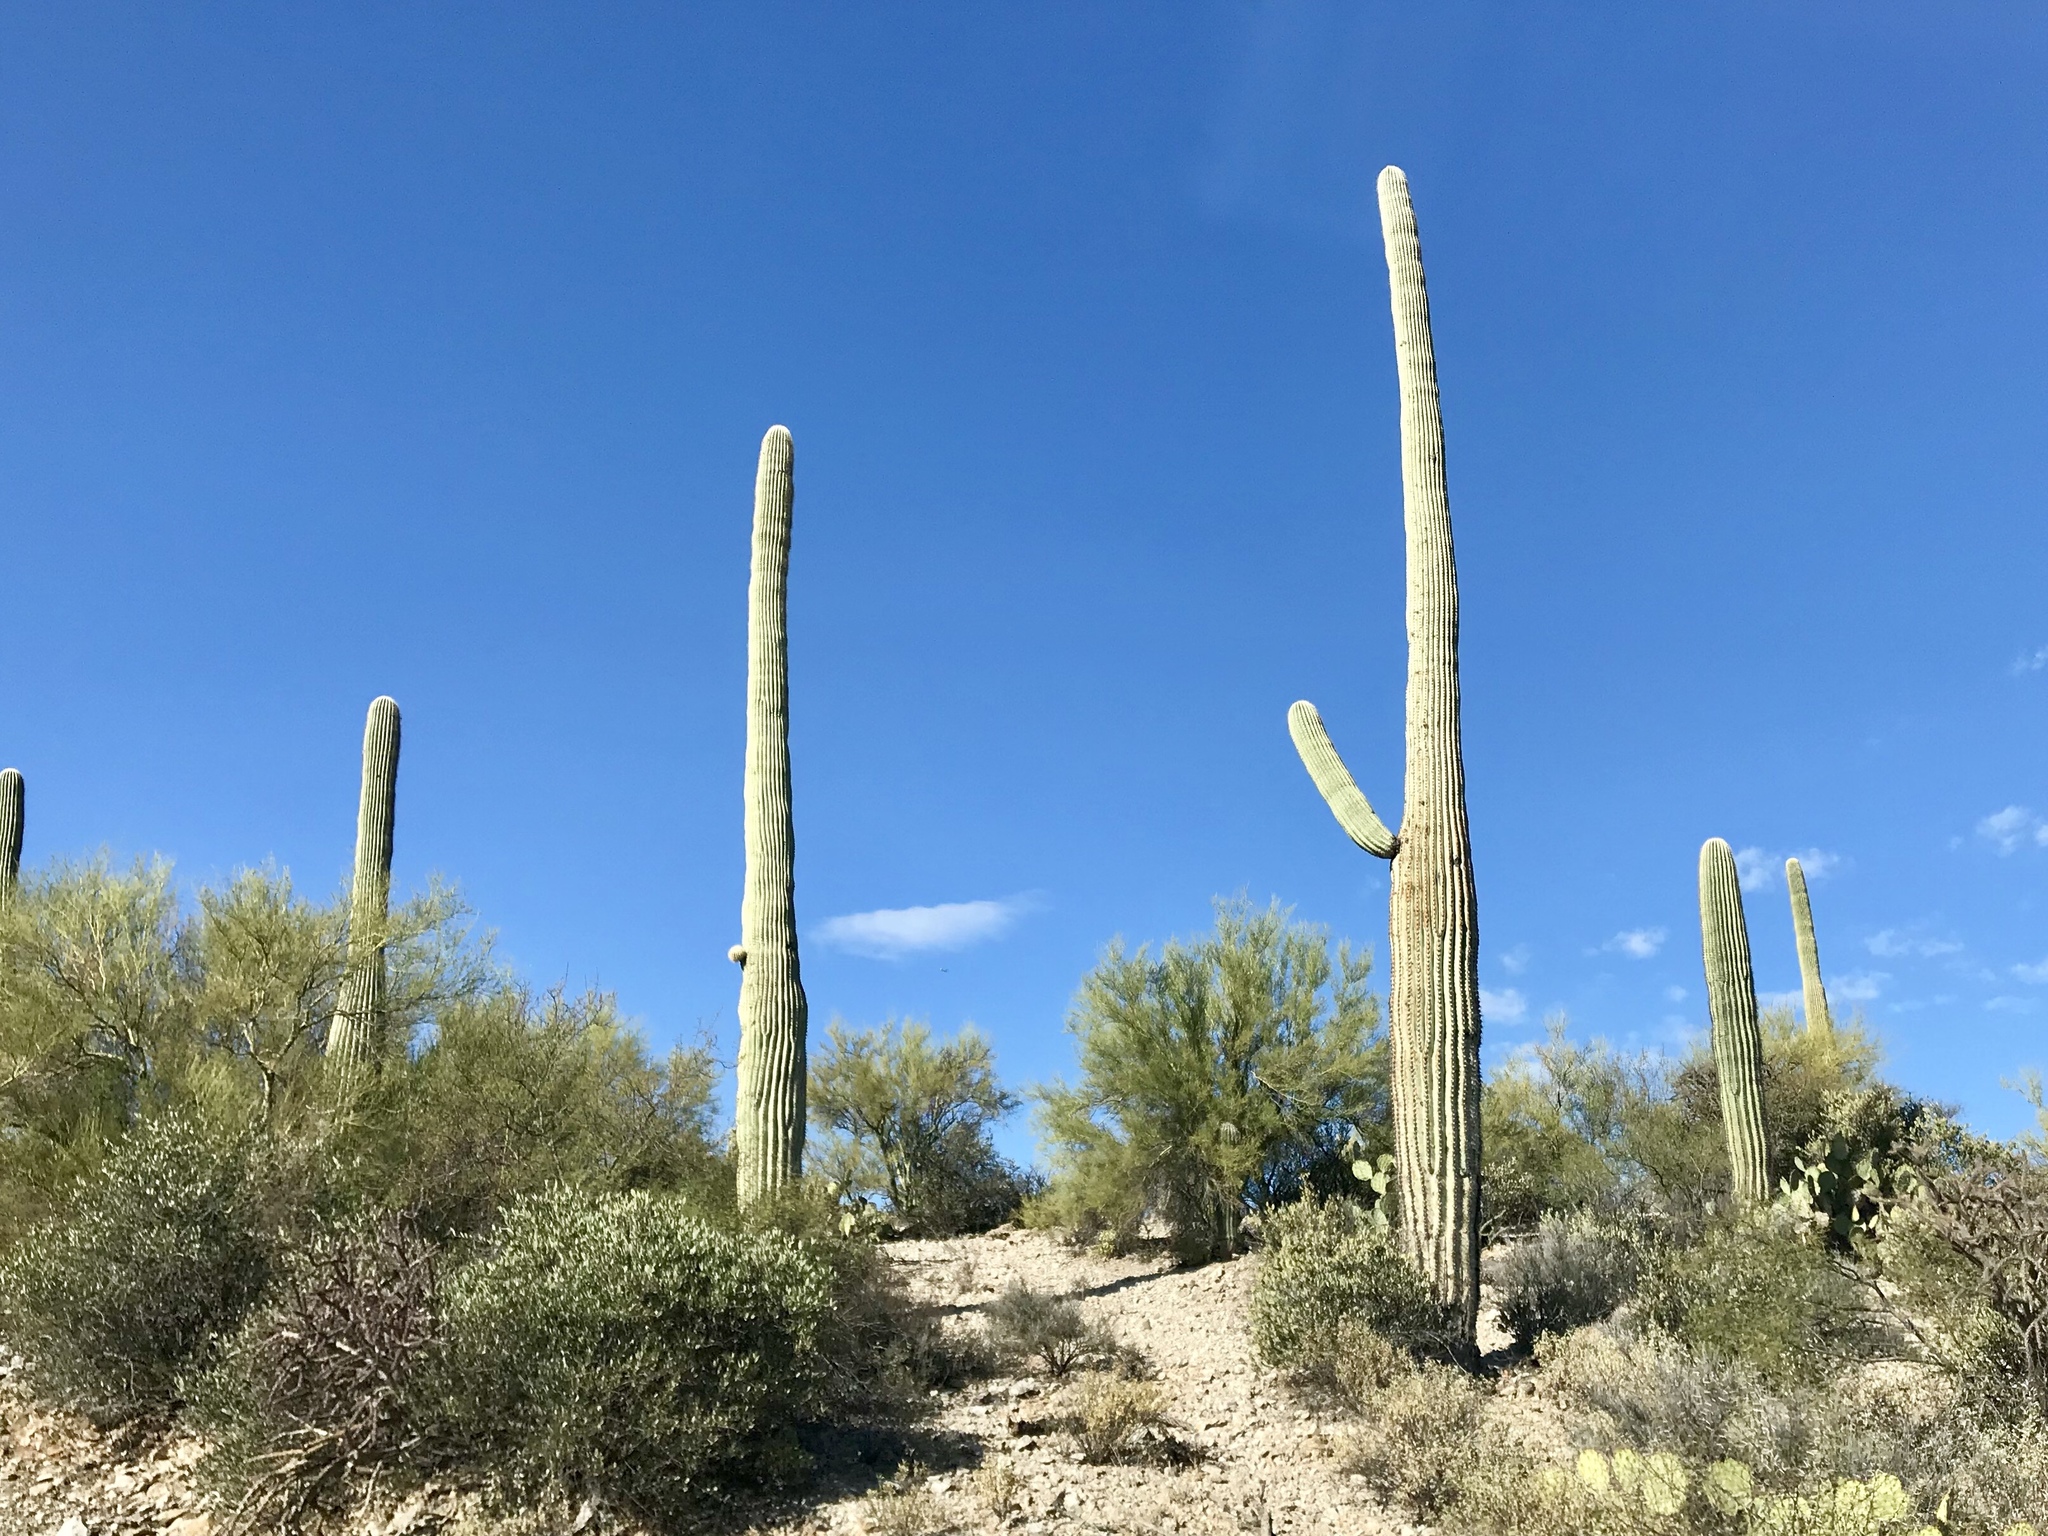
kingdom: Plantae
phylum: Tracheophyta
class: Magnoliopsida
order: Caryophyllales
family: Cactaceae
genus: Carnegiea
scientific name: Carnegiea gigantea
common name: Saguaro
